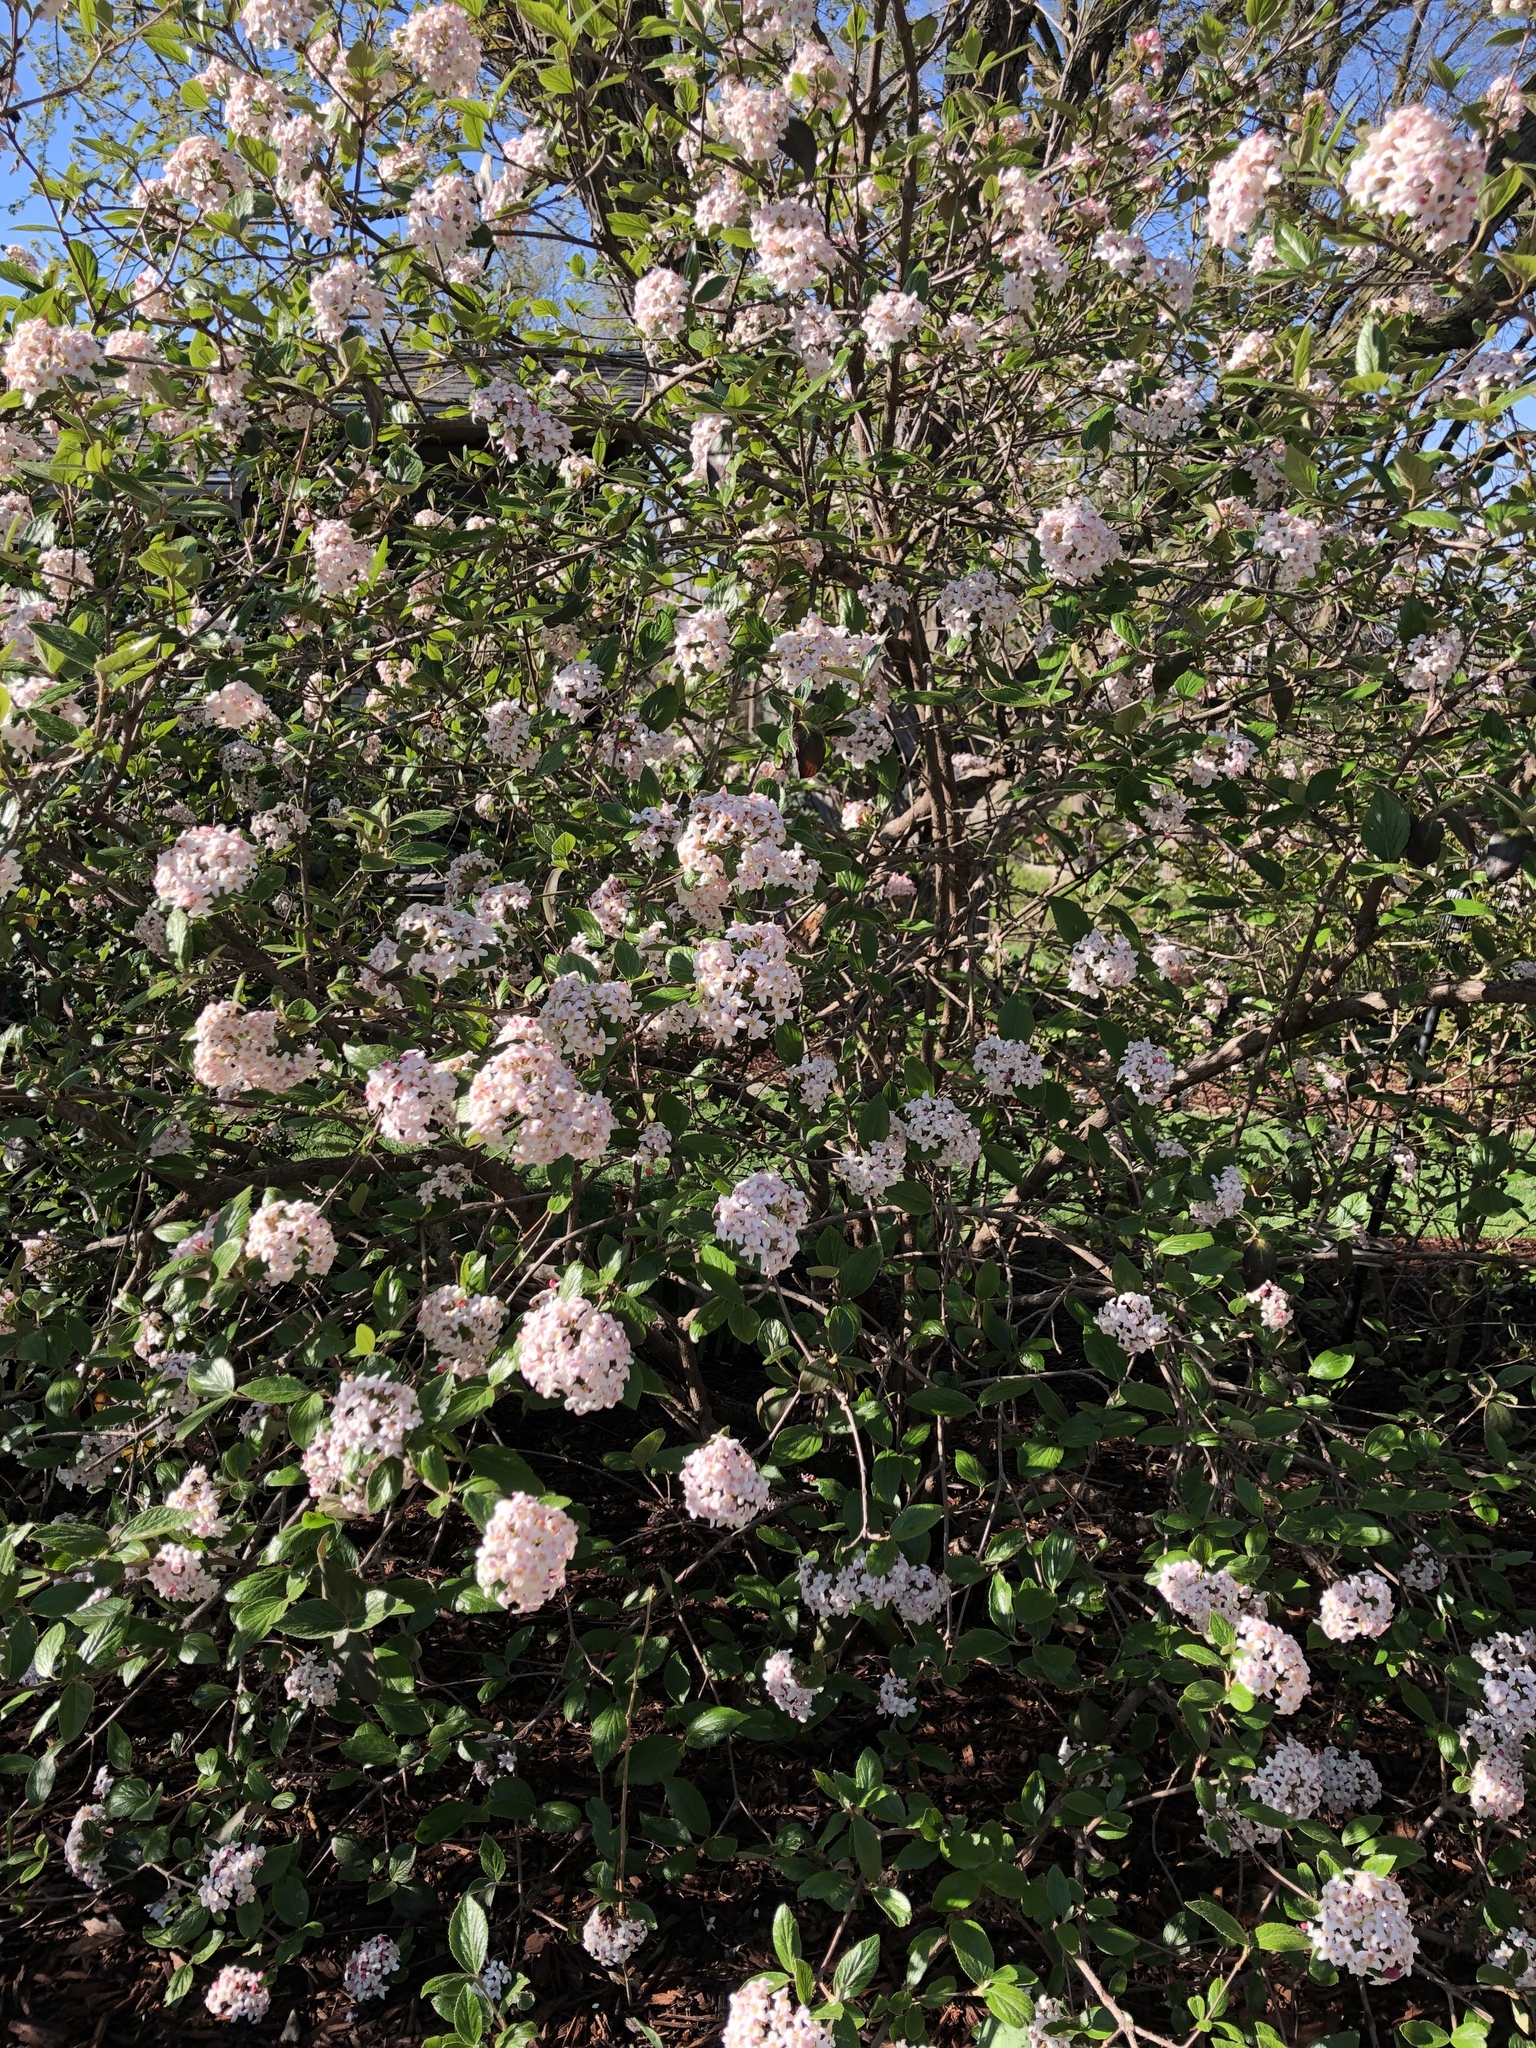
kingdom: Plantae
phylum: Tracheophyta
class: Magnoliopsida
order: Dipsacales
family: Viburnaceae
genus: Viburnum
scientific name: Viburnum carlesii
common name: Koreanspice viburnum
